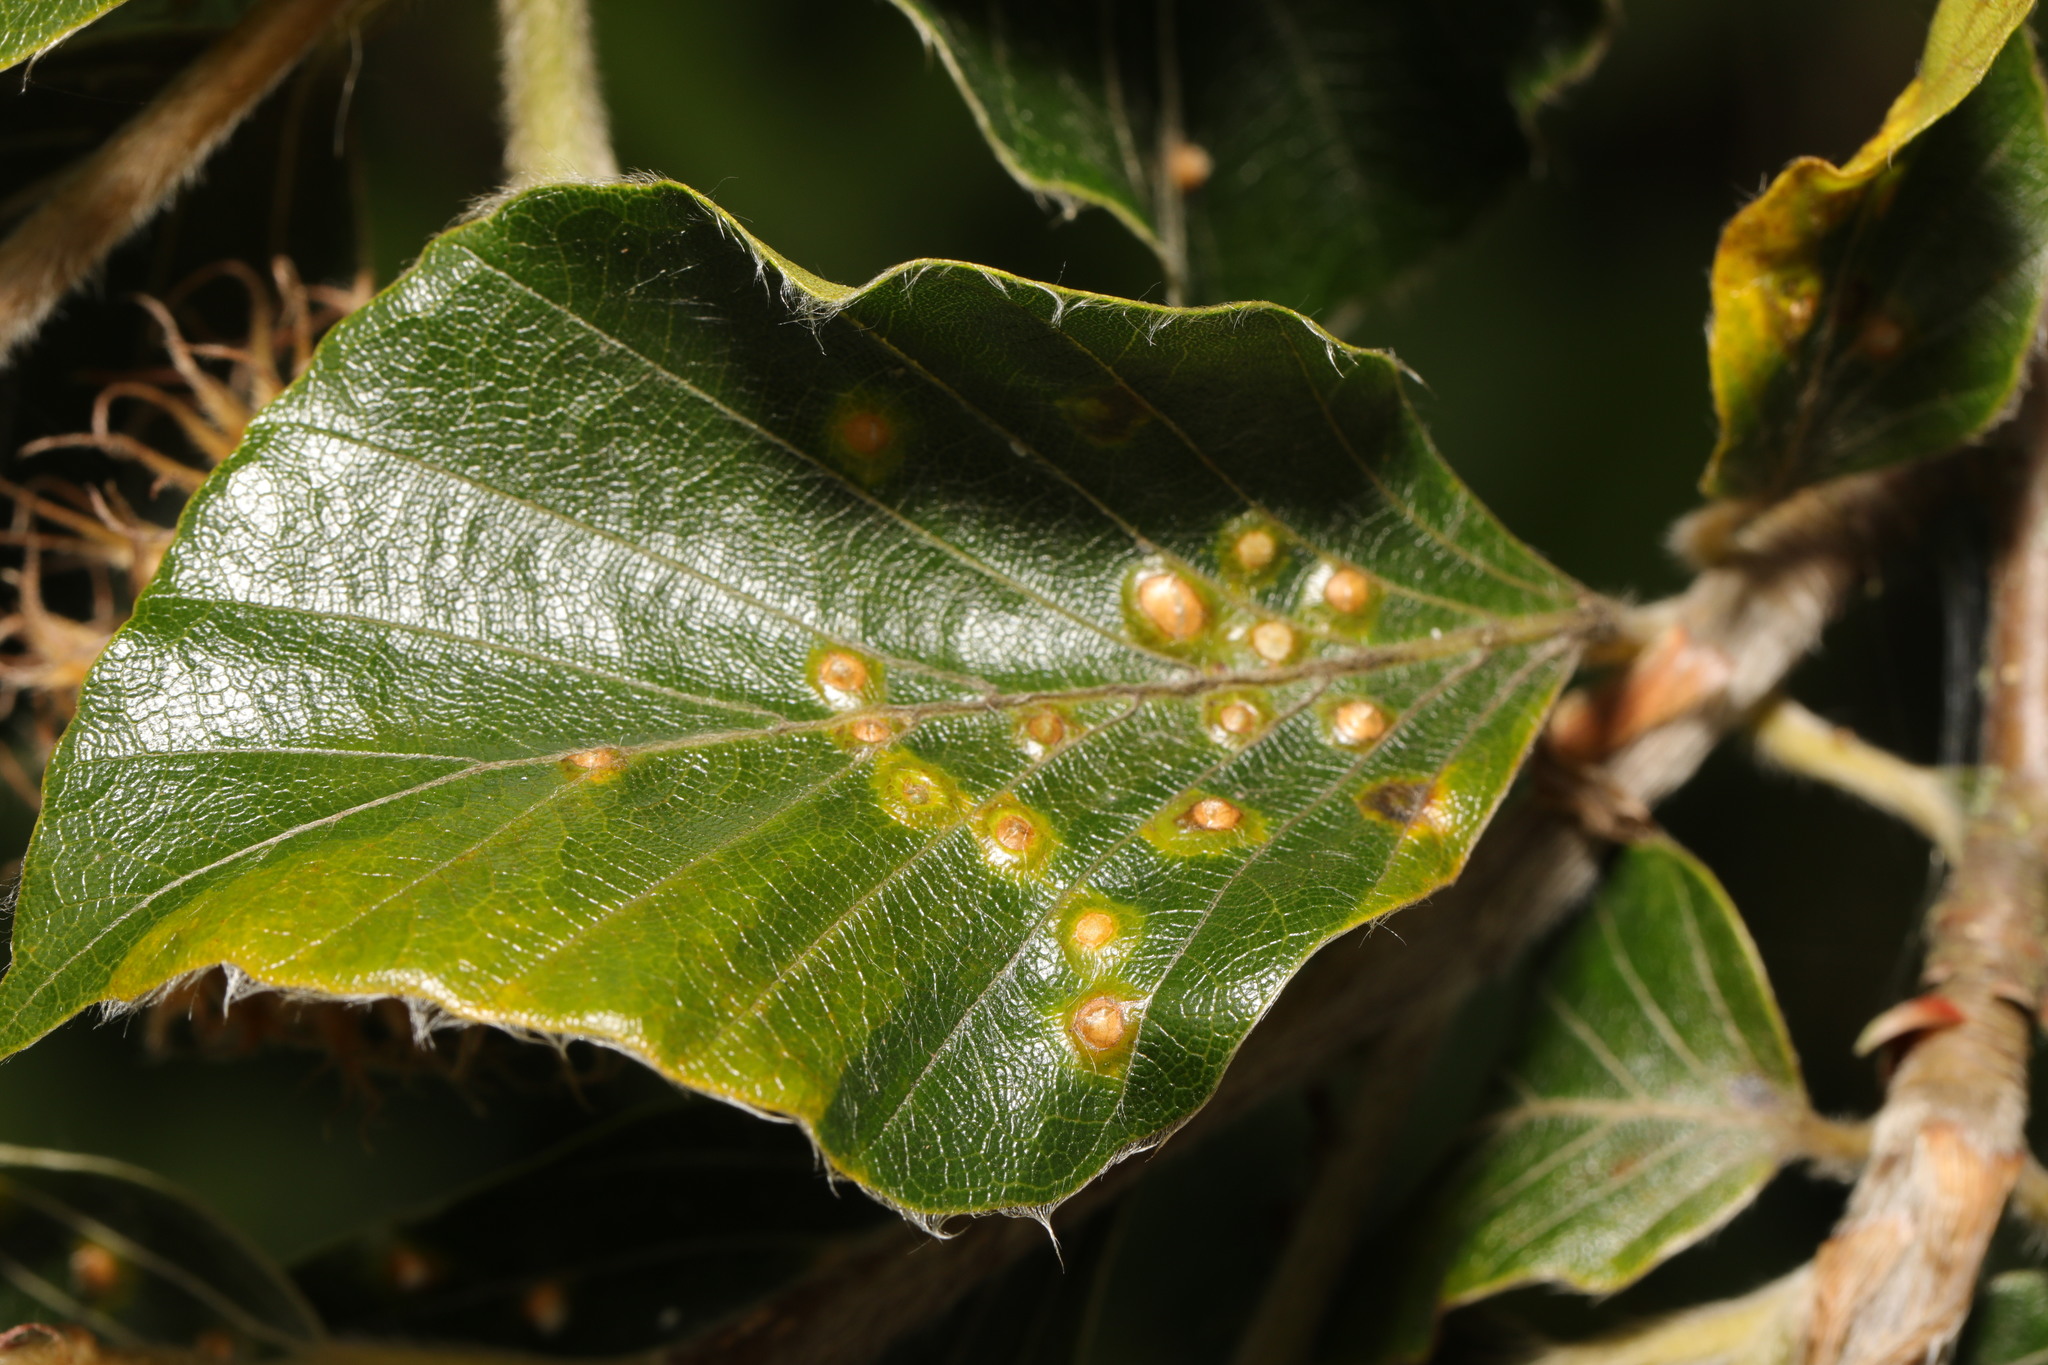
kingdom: Animalia
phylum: Arthropoda
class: Insecta
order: Diptera
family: Cecidomyiidae
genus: Hartigiola
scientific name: Hartigiola annulipes
